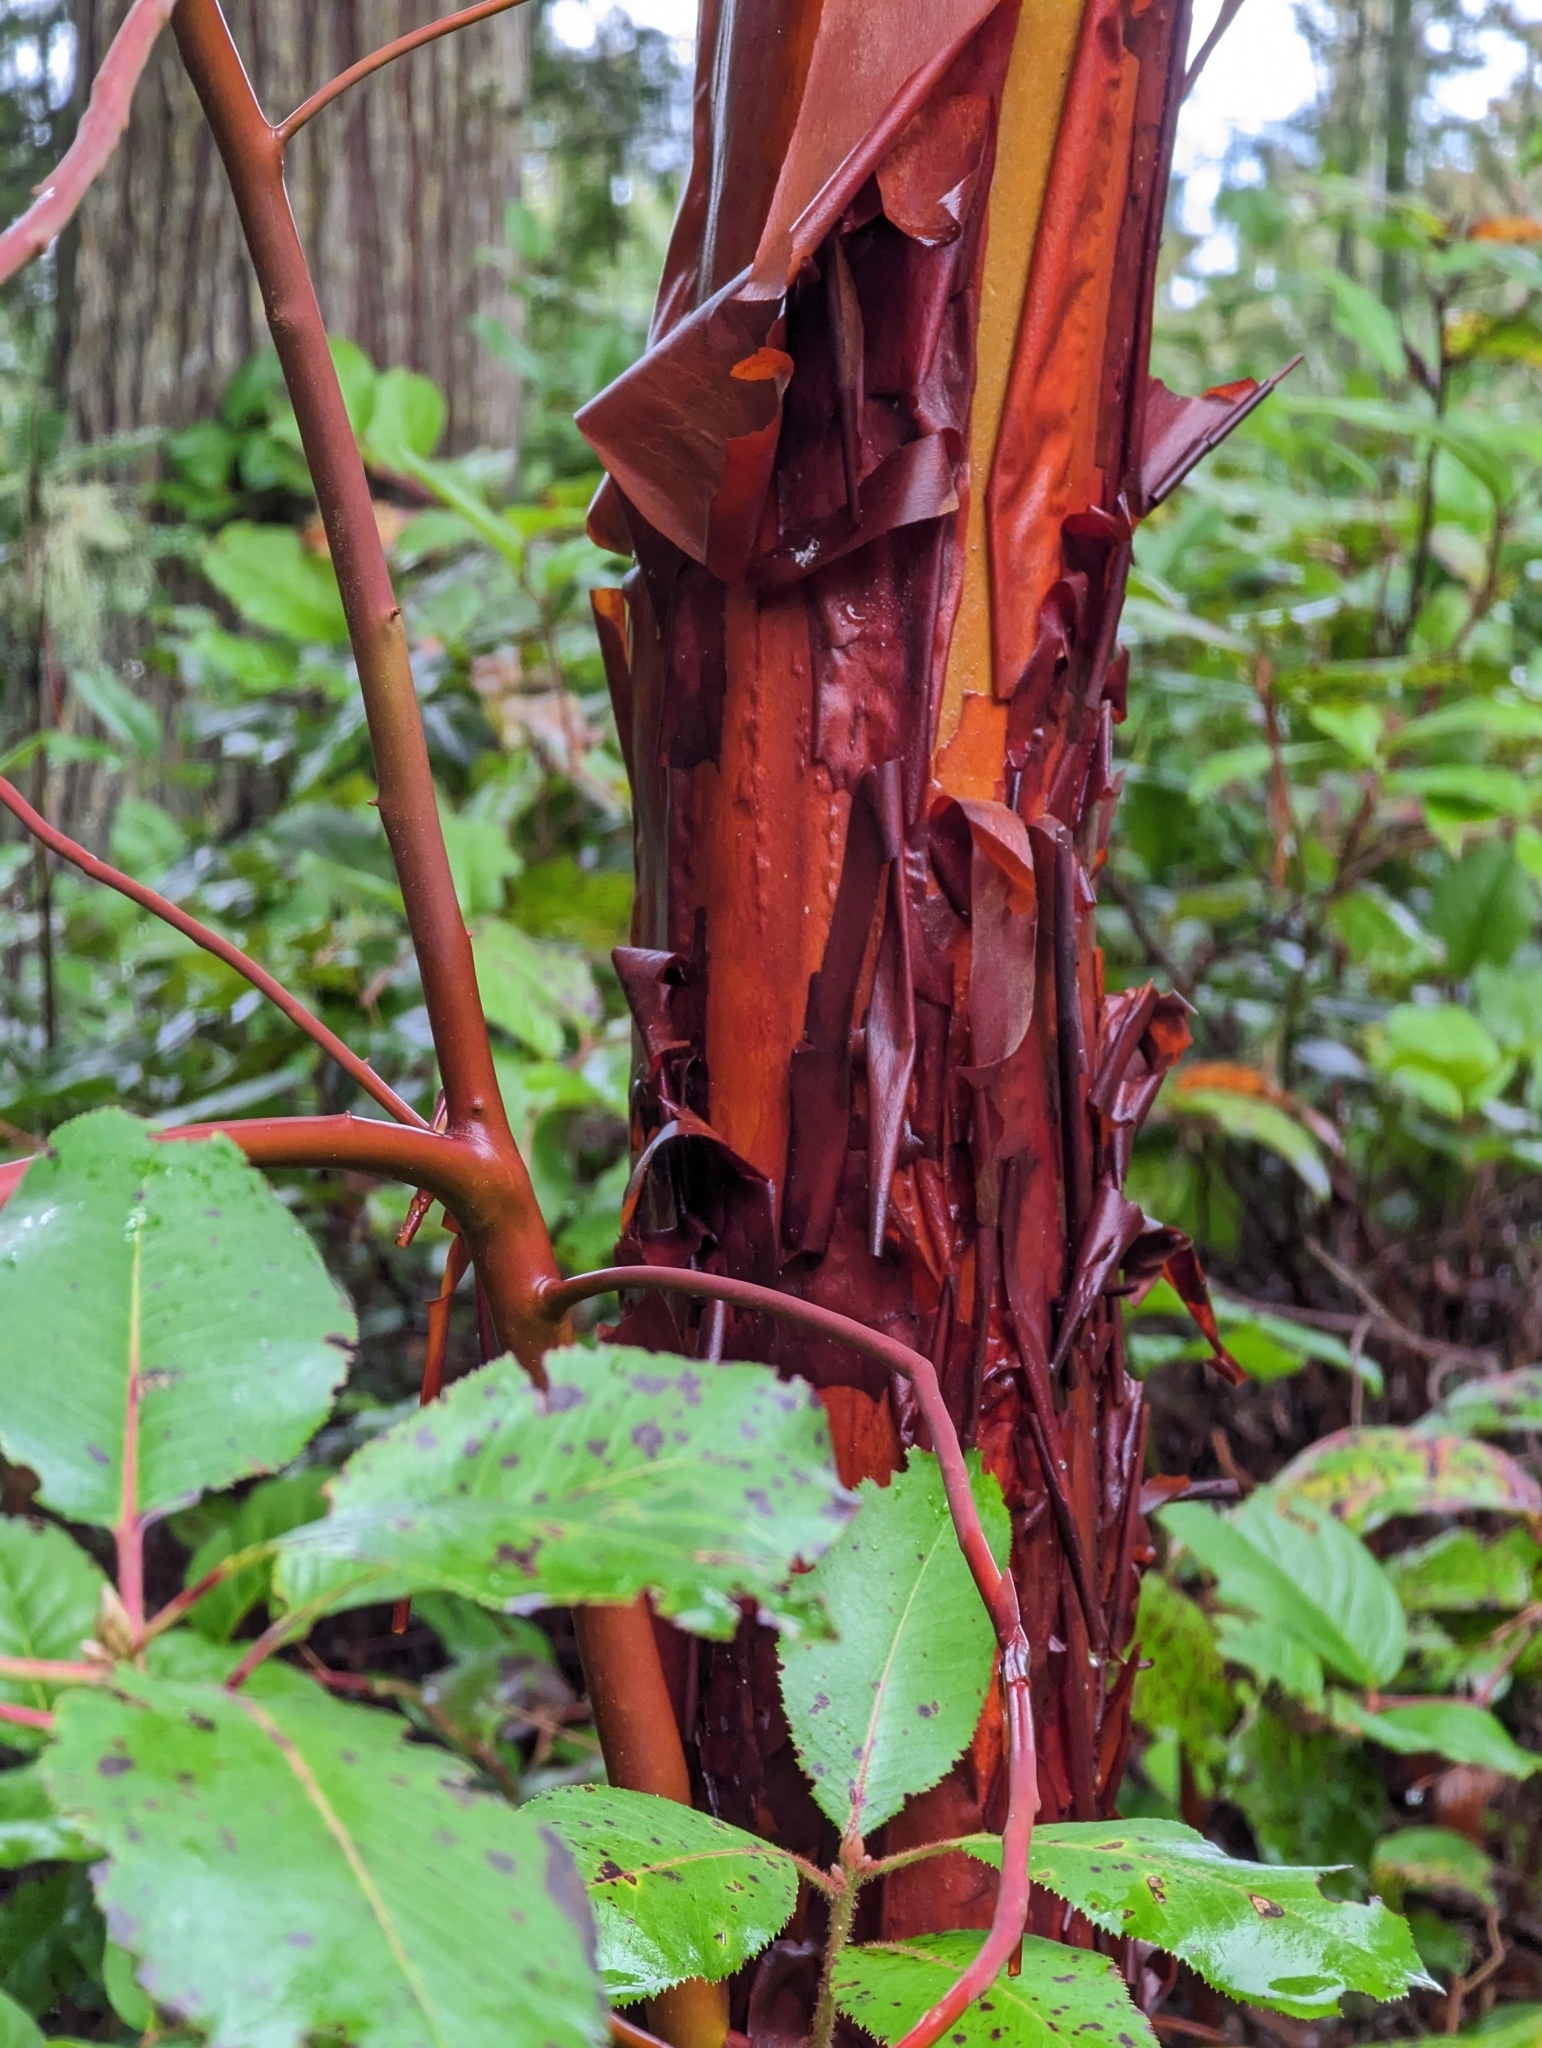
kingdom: Plantae
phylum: Tracheophyta
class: Magnoliopsida
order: Ericales
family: Ericaceae
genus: Arbutus
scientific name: Arbutus menziesii
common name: Pacific madrone
